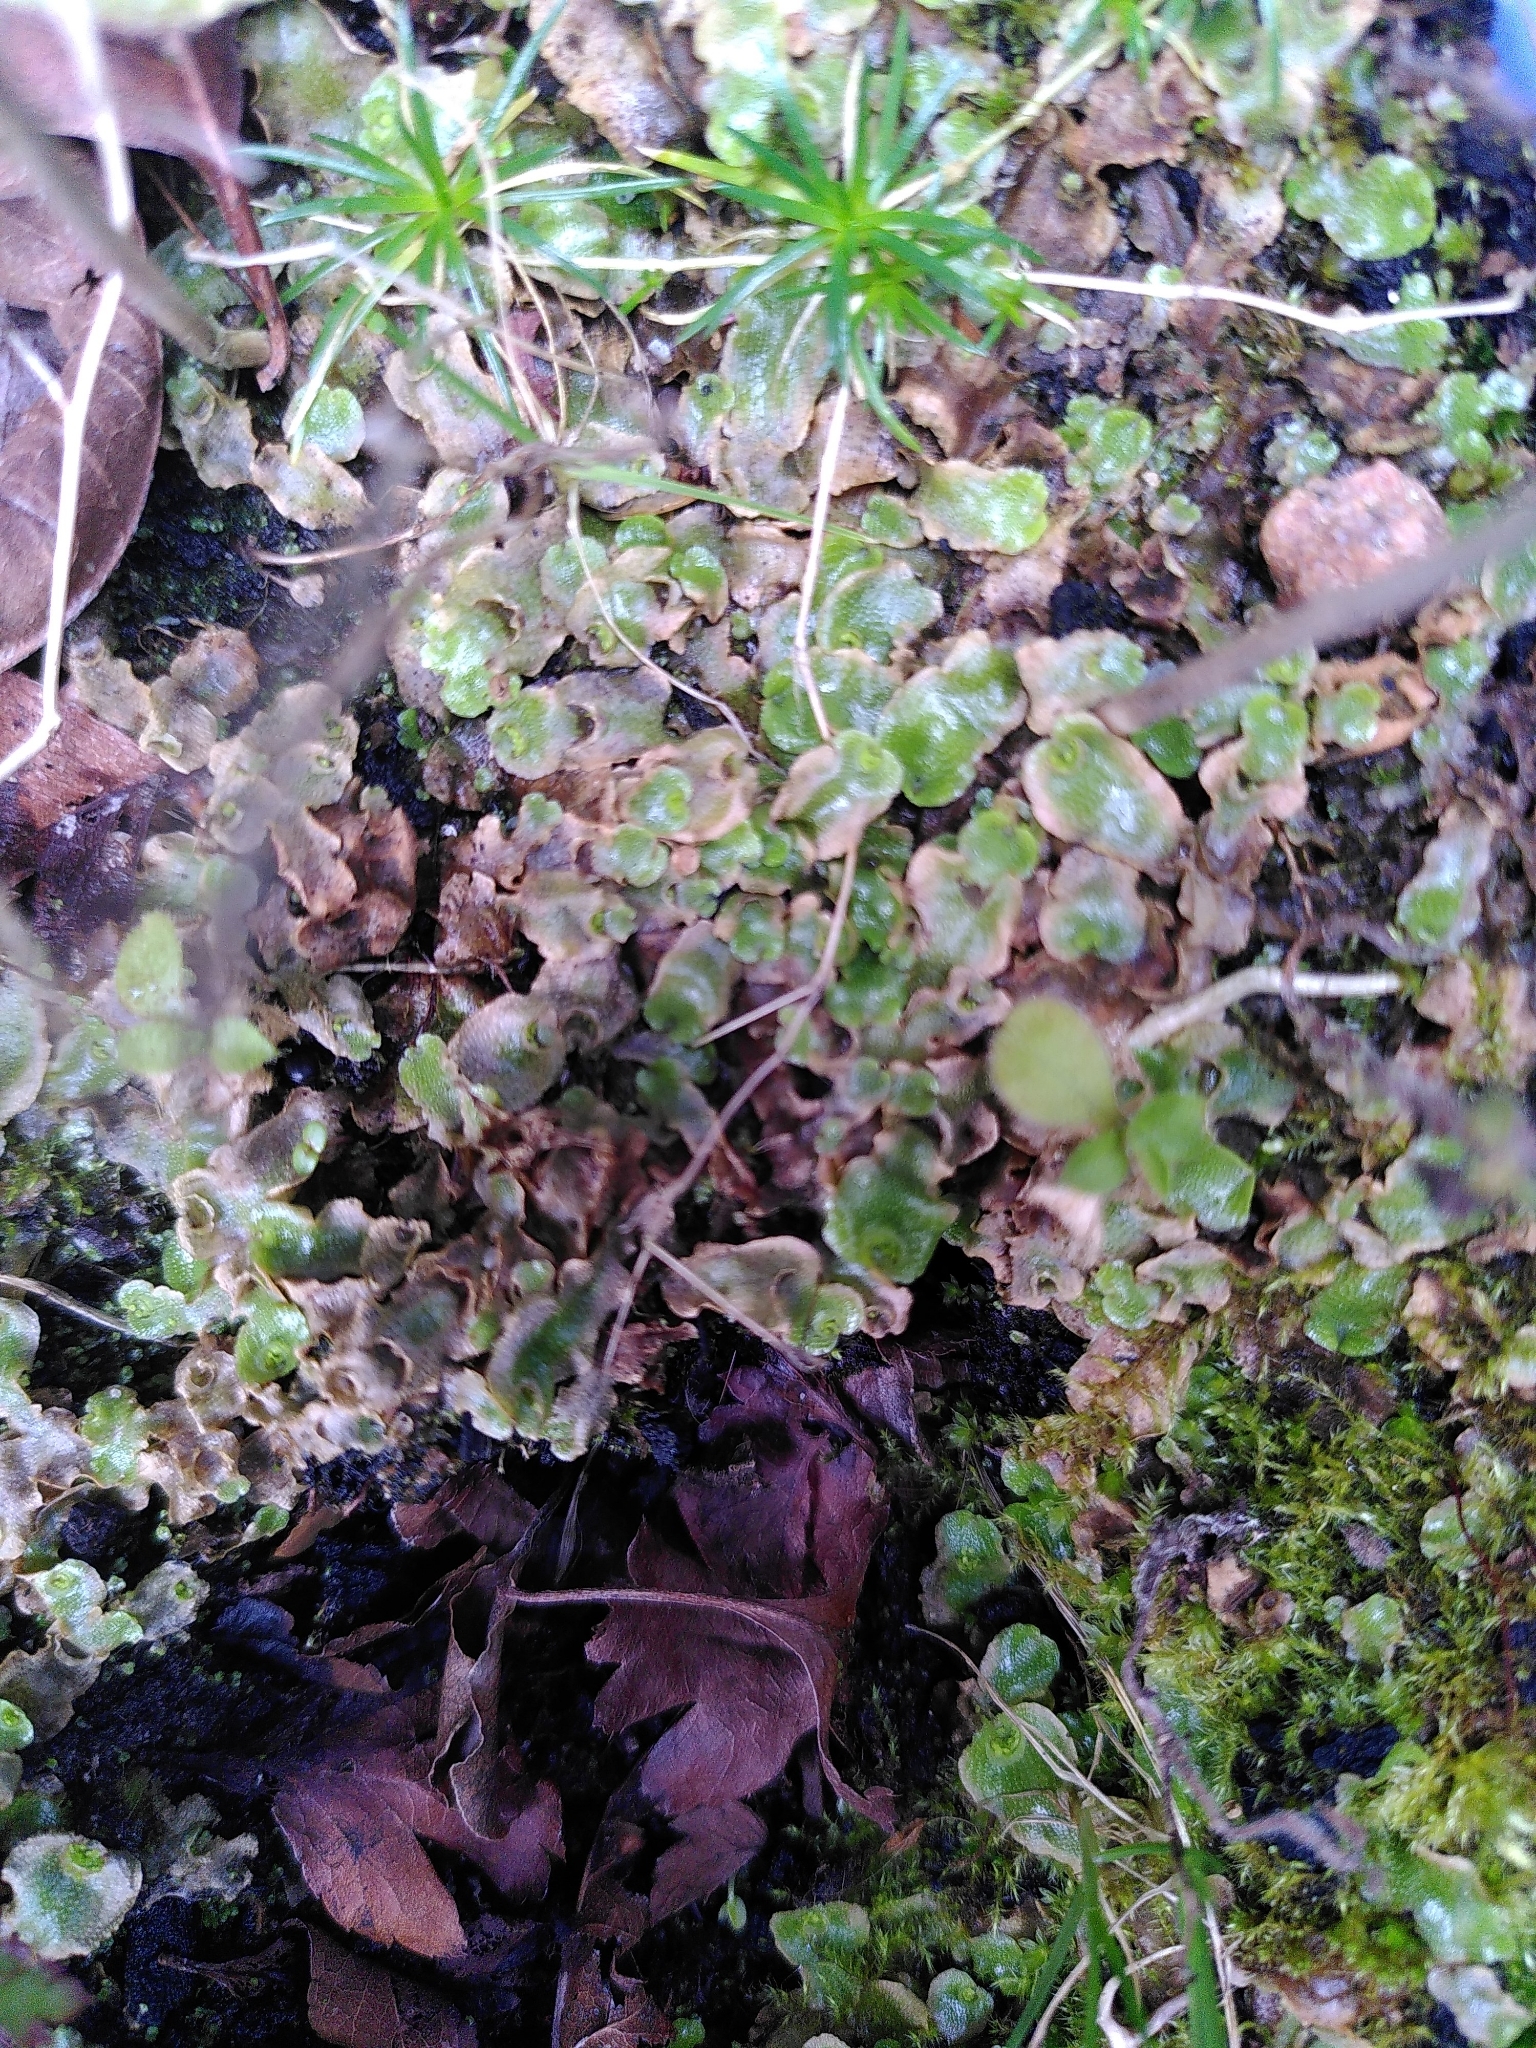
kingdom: Plantae
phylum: Marchantiophyta
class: Marchantiopsida
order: Lunulariales
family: Lunulariaceae
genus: Lunularia
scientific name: Lunularia cruciata
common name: Crescent-cup liverwort
